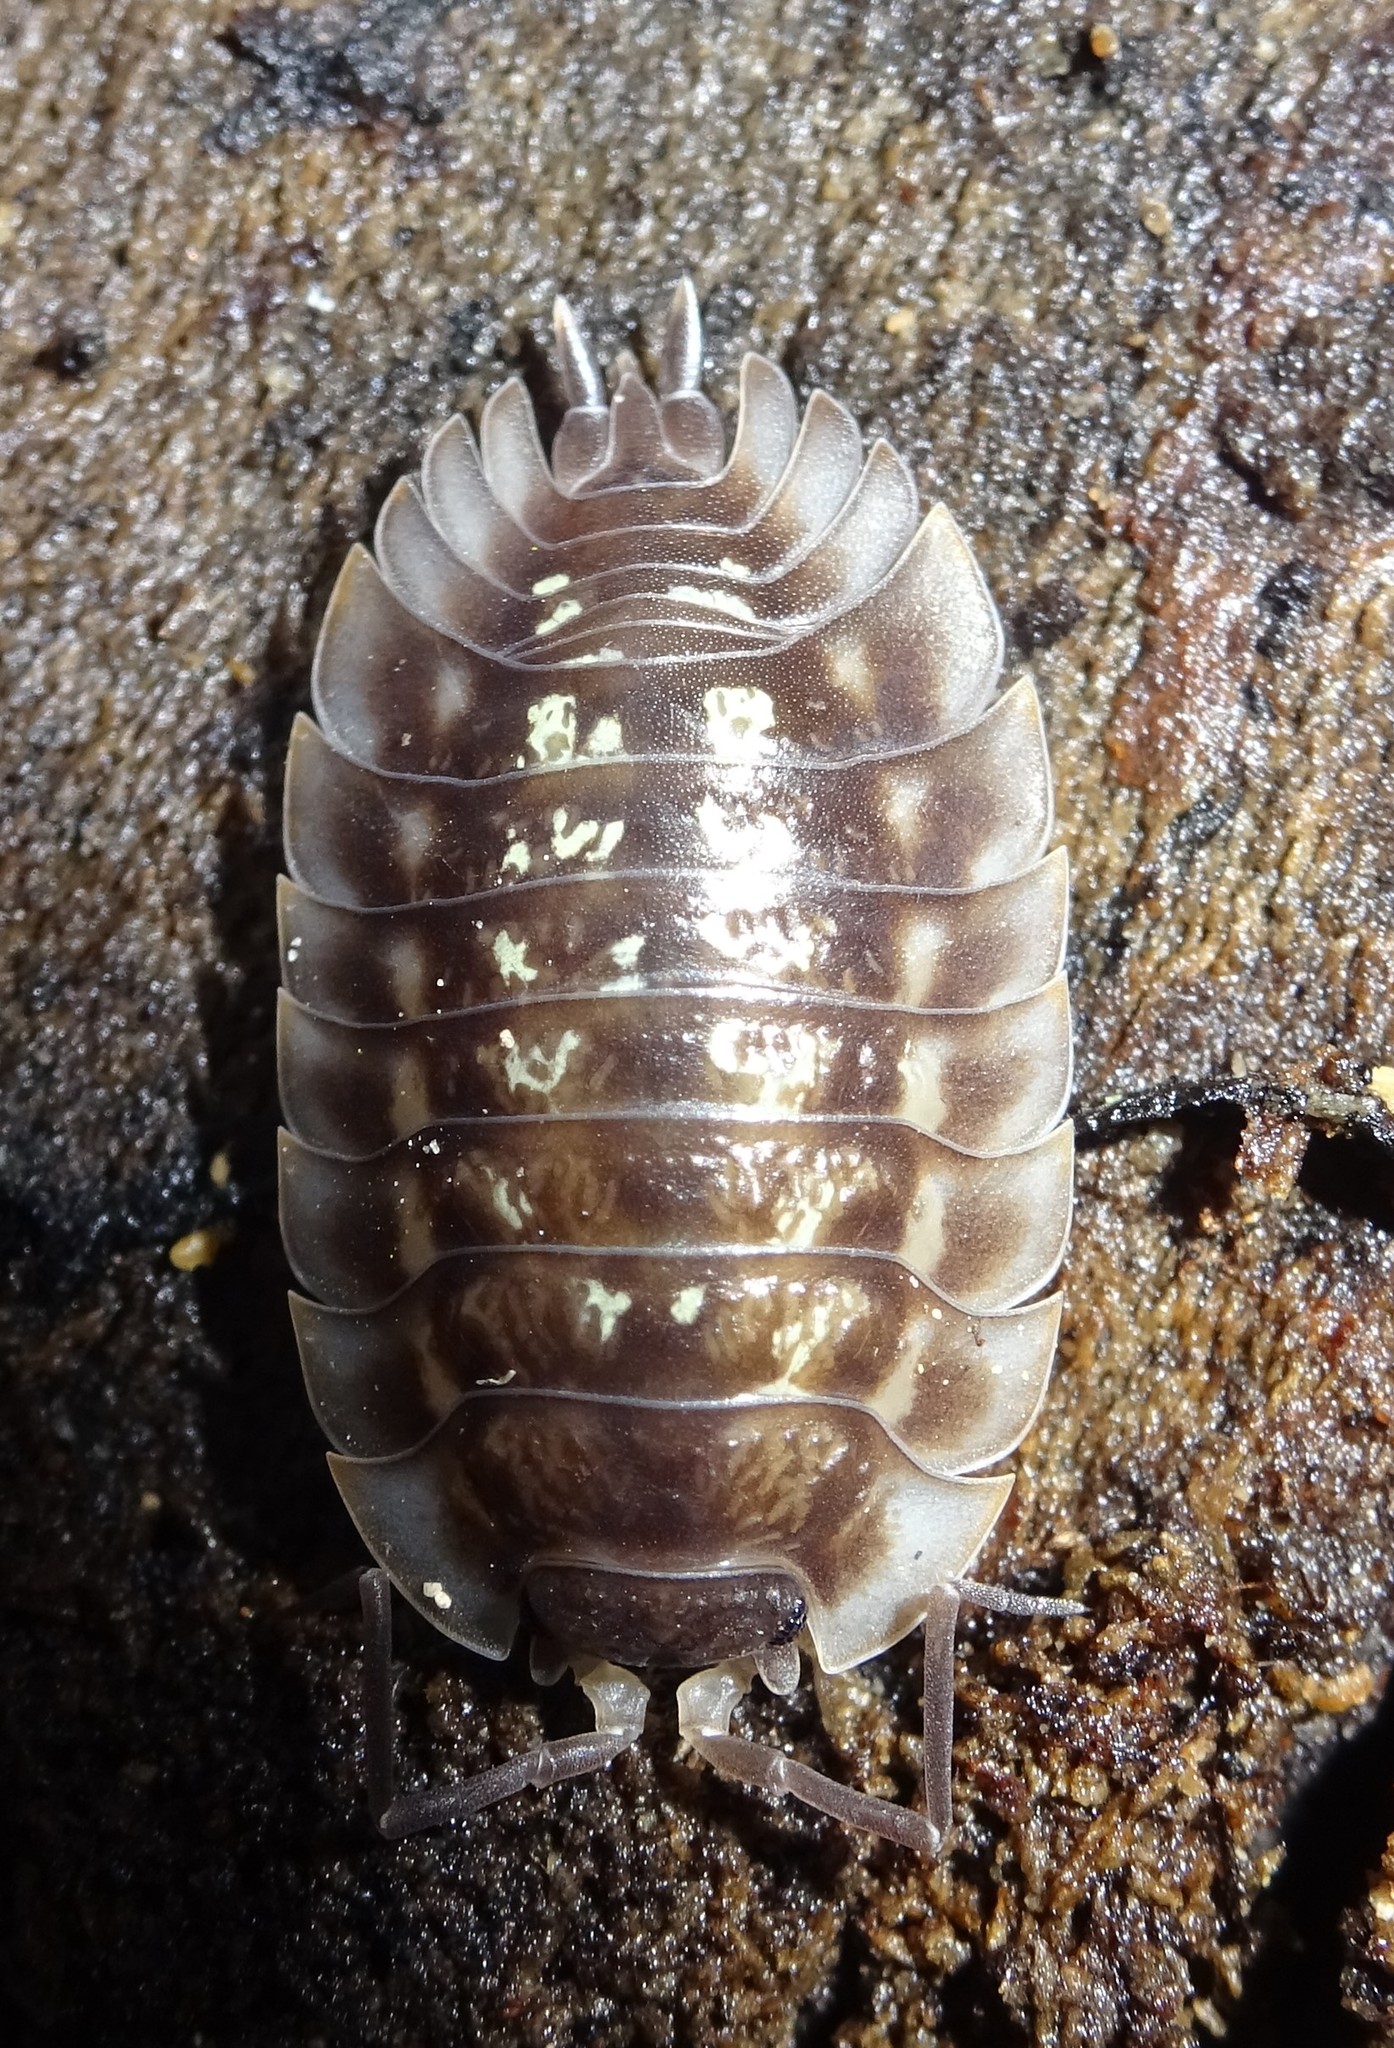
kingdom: Animalia
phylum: Arthropoda
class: Malacostraca
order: Isopoda
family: Oniscidae
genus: Oniscus
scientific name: Oniscus asellus
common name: Common shiny woodlouse
